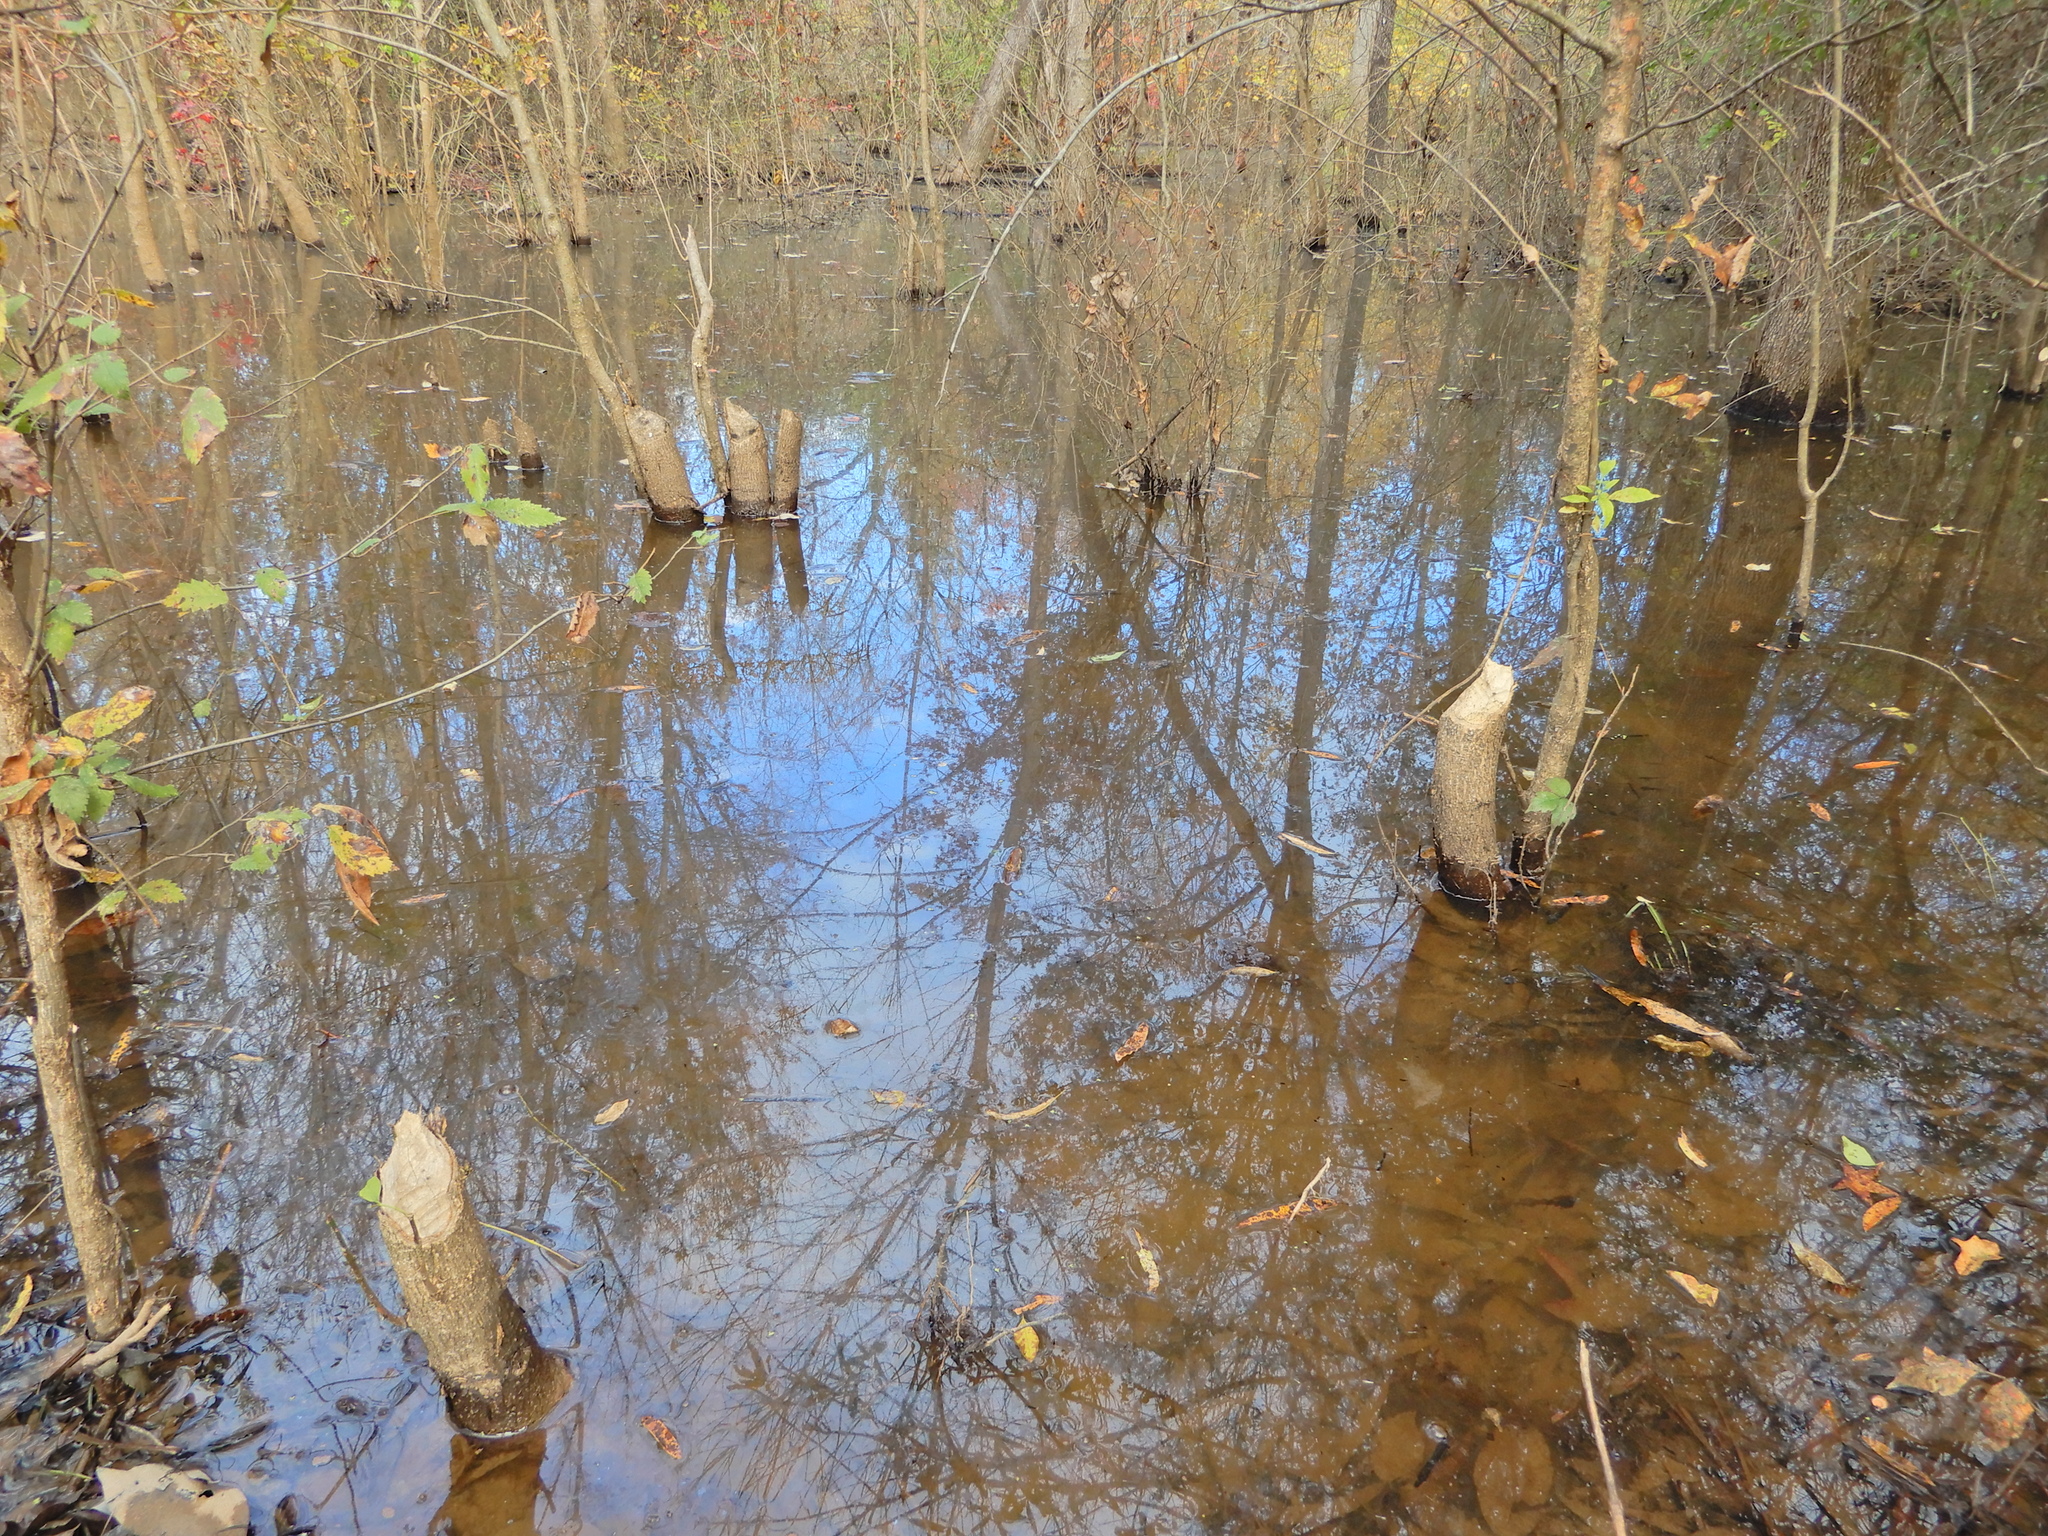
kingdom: Animalia
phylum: Chordata
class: Mammalia
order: Rodentia
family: Castoridae
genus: Castor
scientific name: Castor canadensis
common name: American beaver
